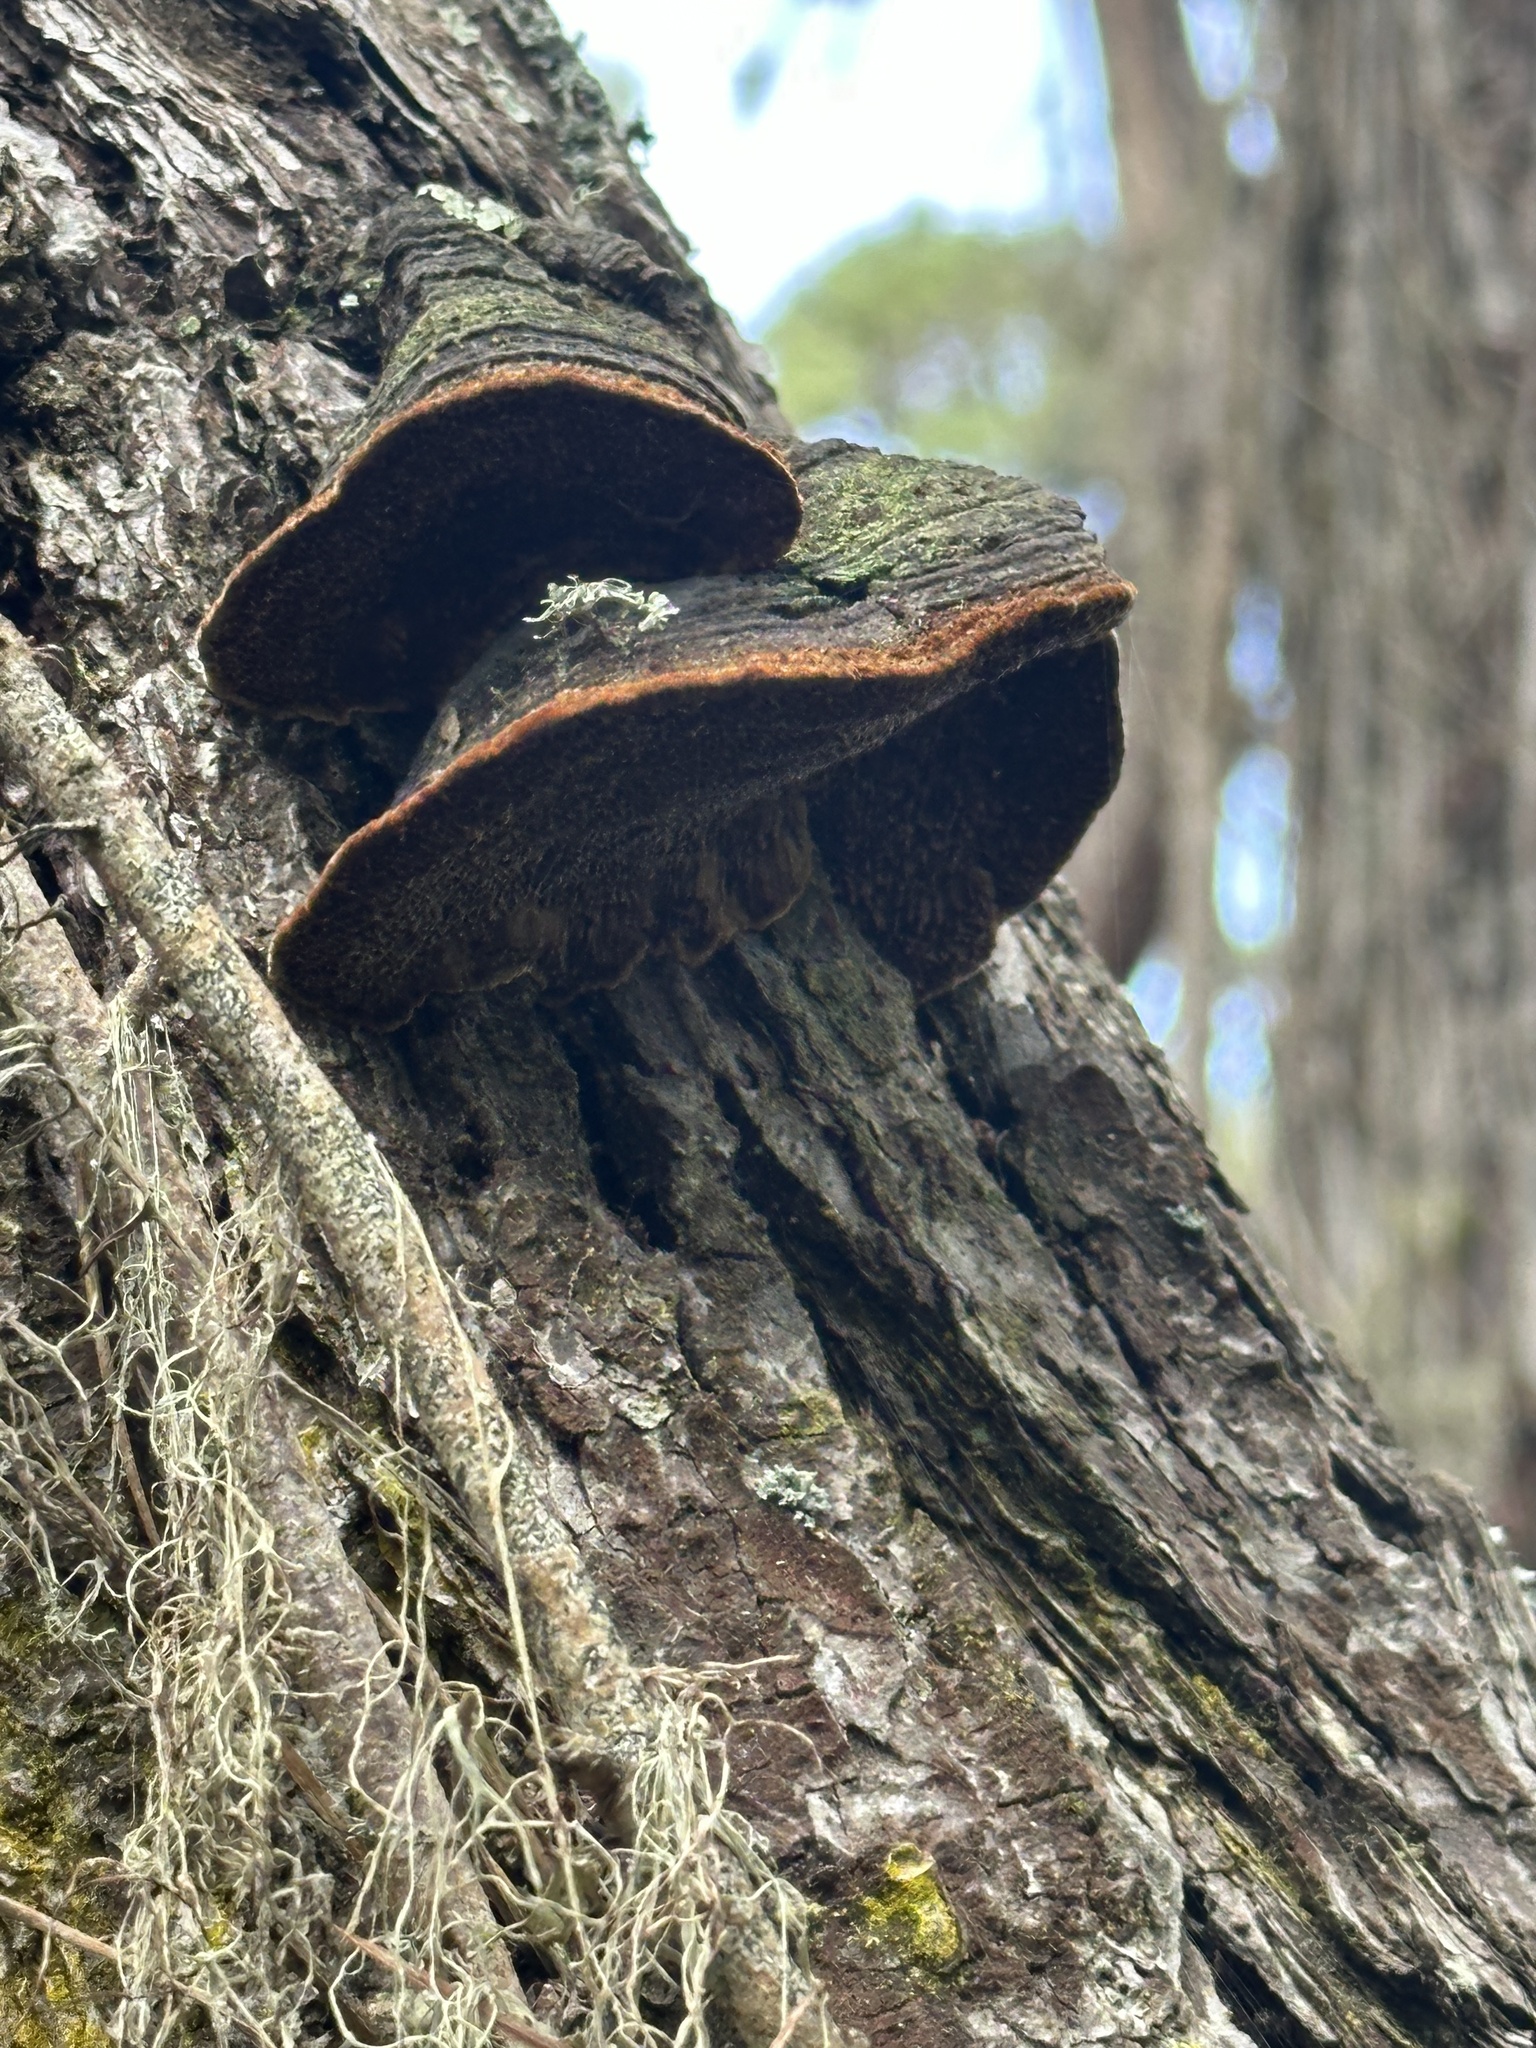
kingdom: Fungi
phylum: Basidiomycota
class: Agaricomycetes
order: Hymenochaetales
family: Hymenochaetaceae
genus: Porodaedalea
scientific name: Porodaedalea pini
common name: Pine bracket
